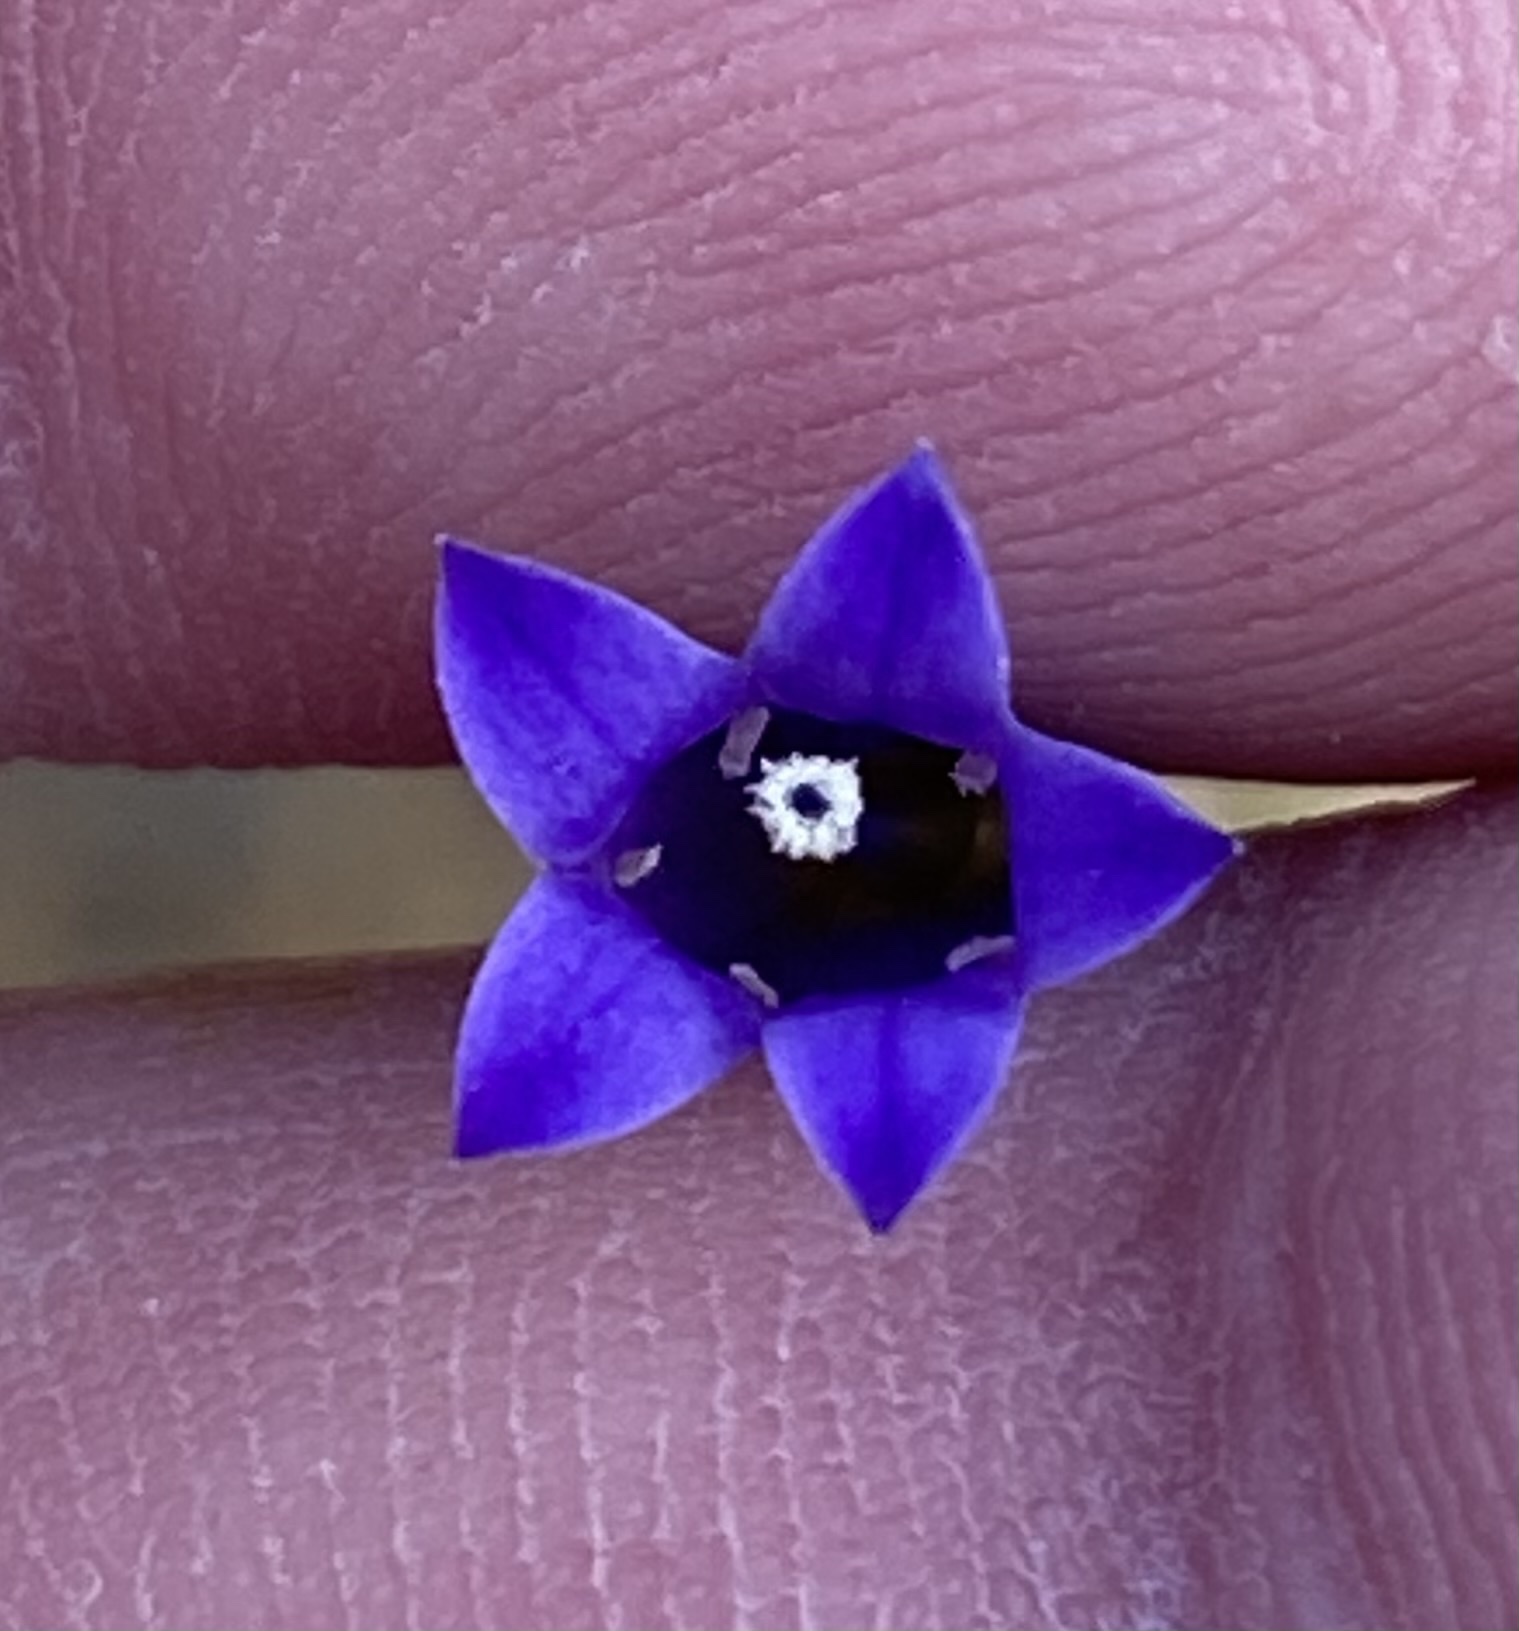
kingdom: Plantae
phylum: Tracheophyta
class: Magnoliopsida
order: Asterales
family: Campanulaceae
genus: Siphocodon
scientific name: Siphocodon spartioides
